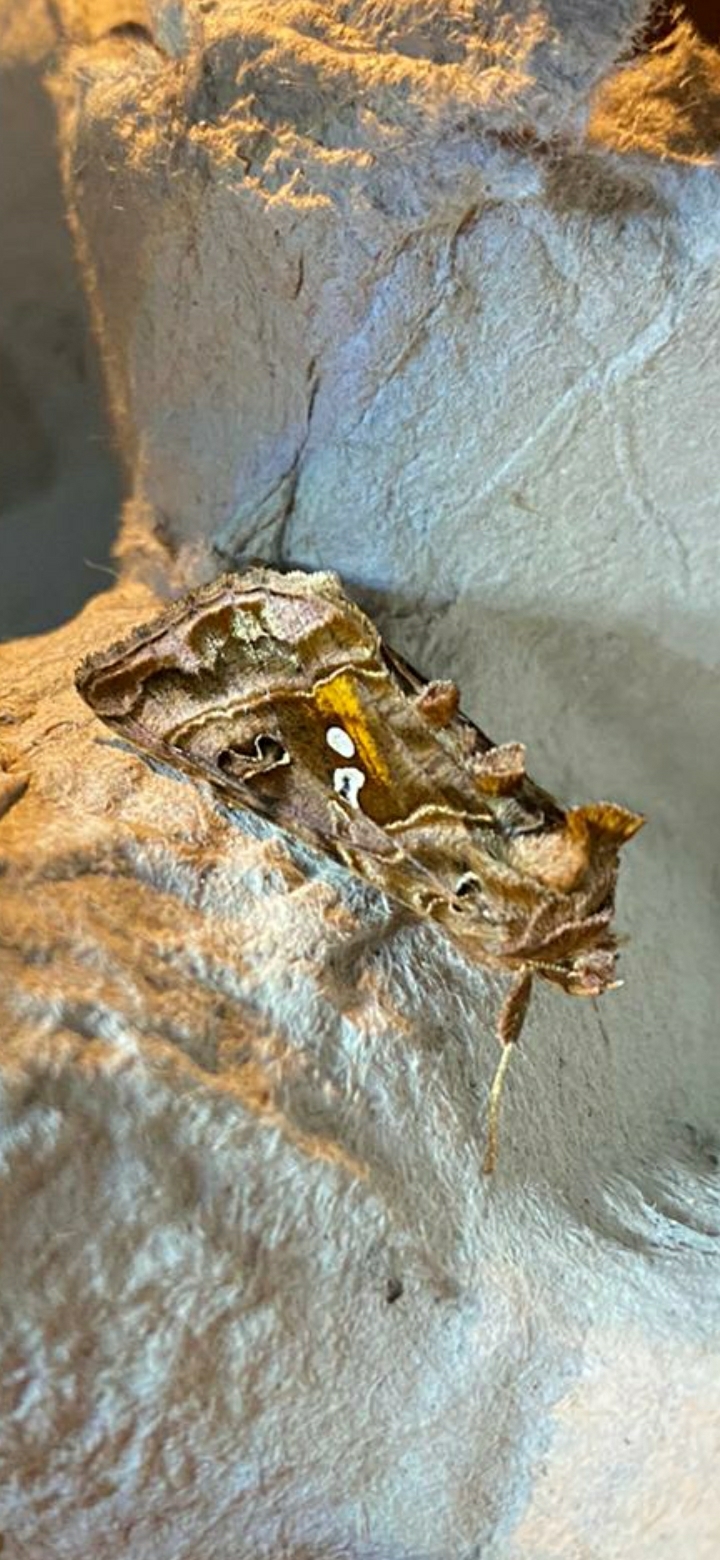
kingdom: Animalia
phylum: Arthropoda
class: Insecta
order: Lepidoptera
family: Noctuidae
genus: Autographa
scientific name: Autographa pulchrina
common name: Beautiful golden y
